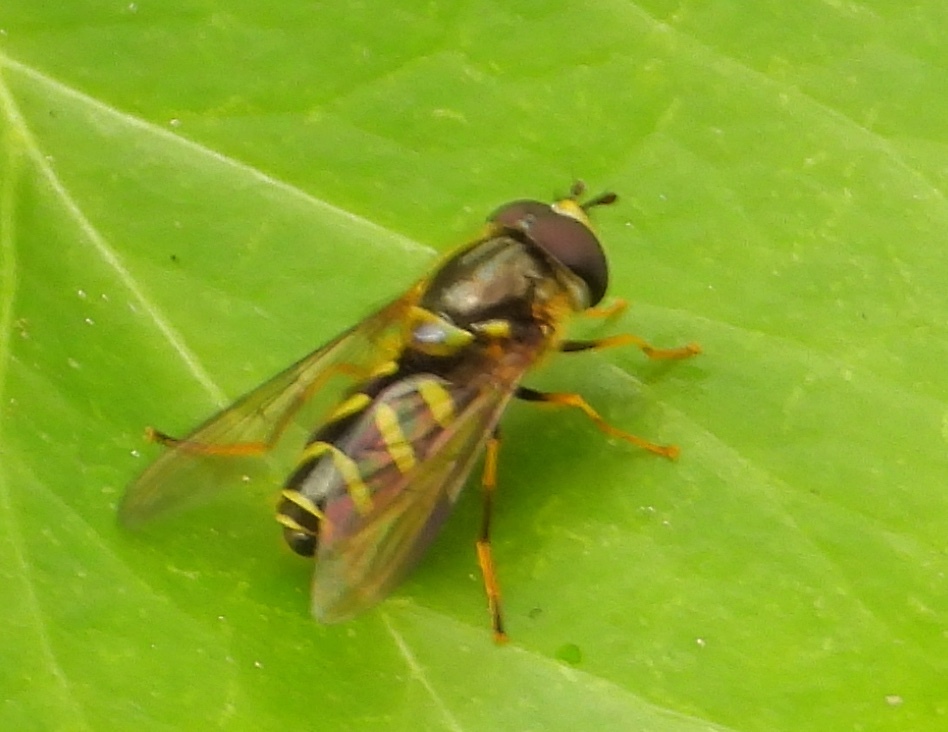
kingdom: Animalia
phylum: Arthropoda
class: Insecta
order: Diptera
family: Syrphidae
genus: Dasysyrphus
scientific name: Dasysyrphus albostriatus
